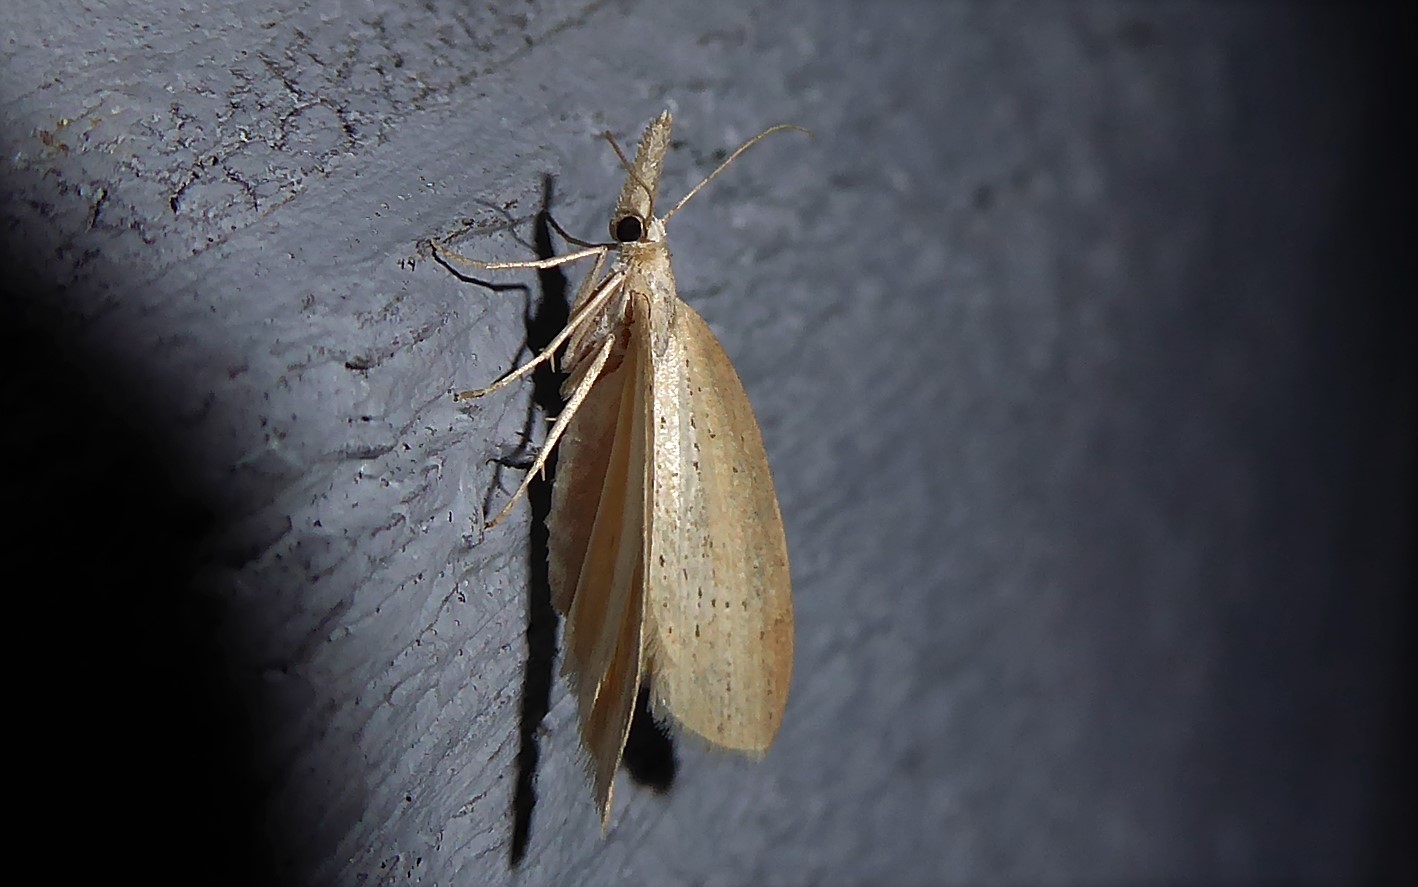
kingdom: Animalia
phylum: Arthropoda
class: Insecta
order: Lepidoptera
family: Geometridae
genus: Microdes
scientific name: Microdes epicryptis
